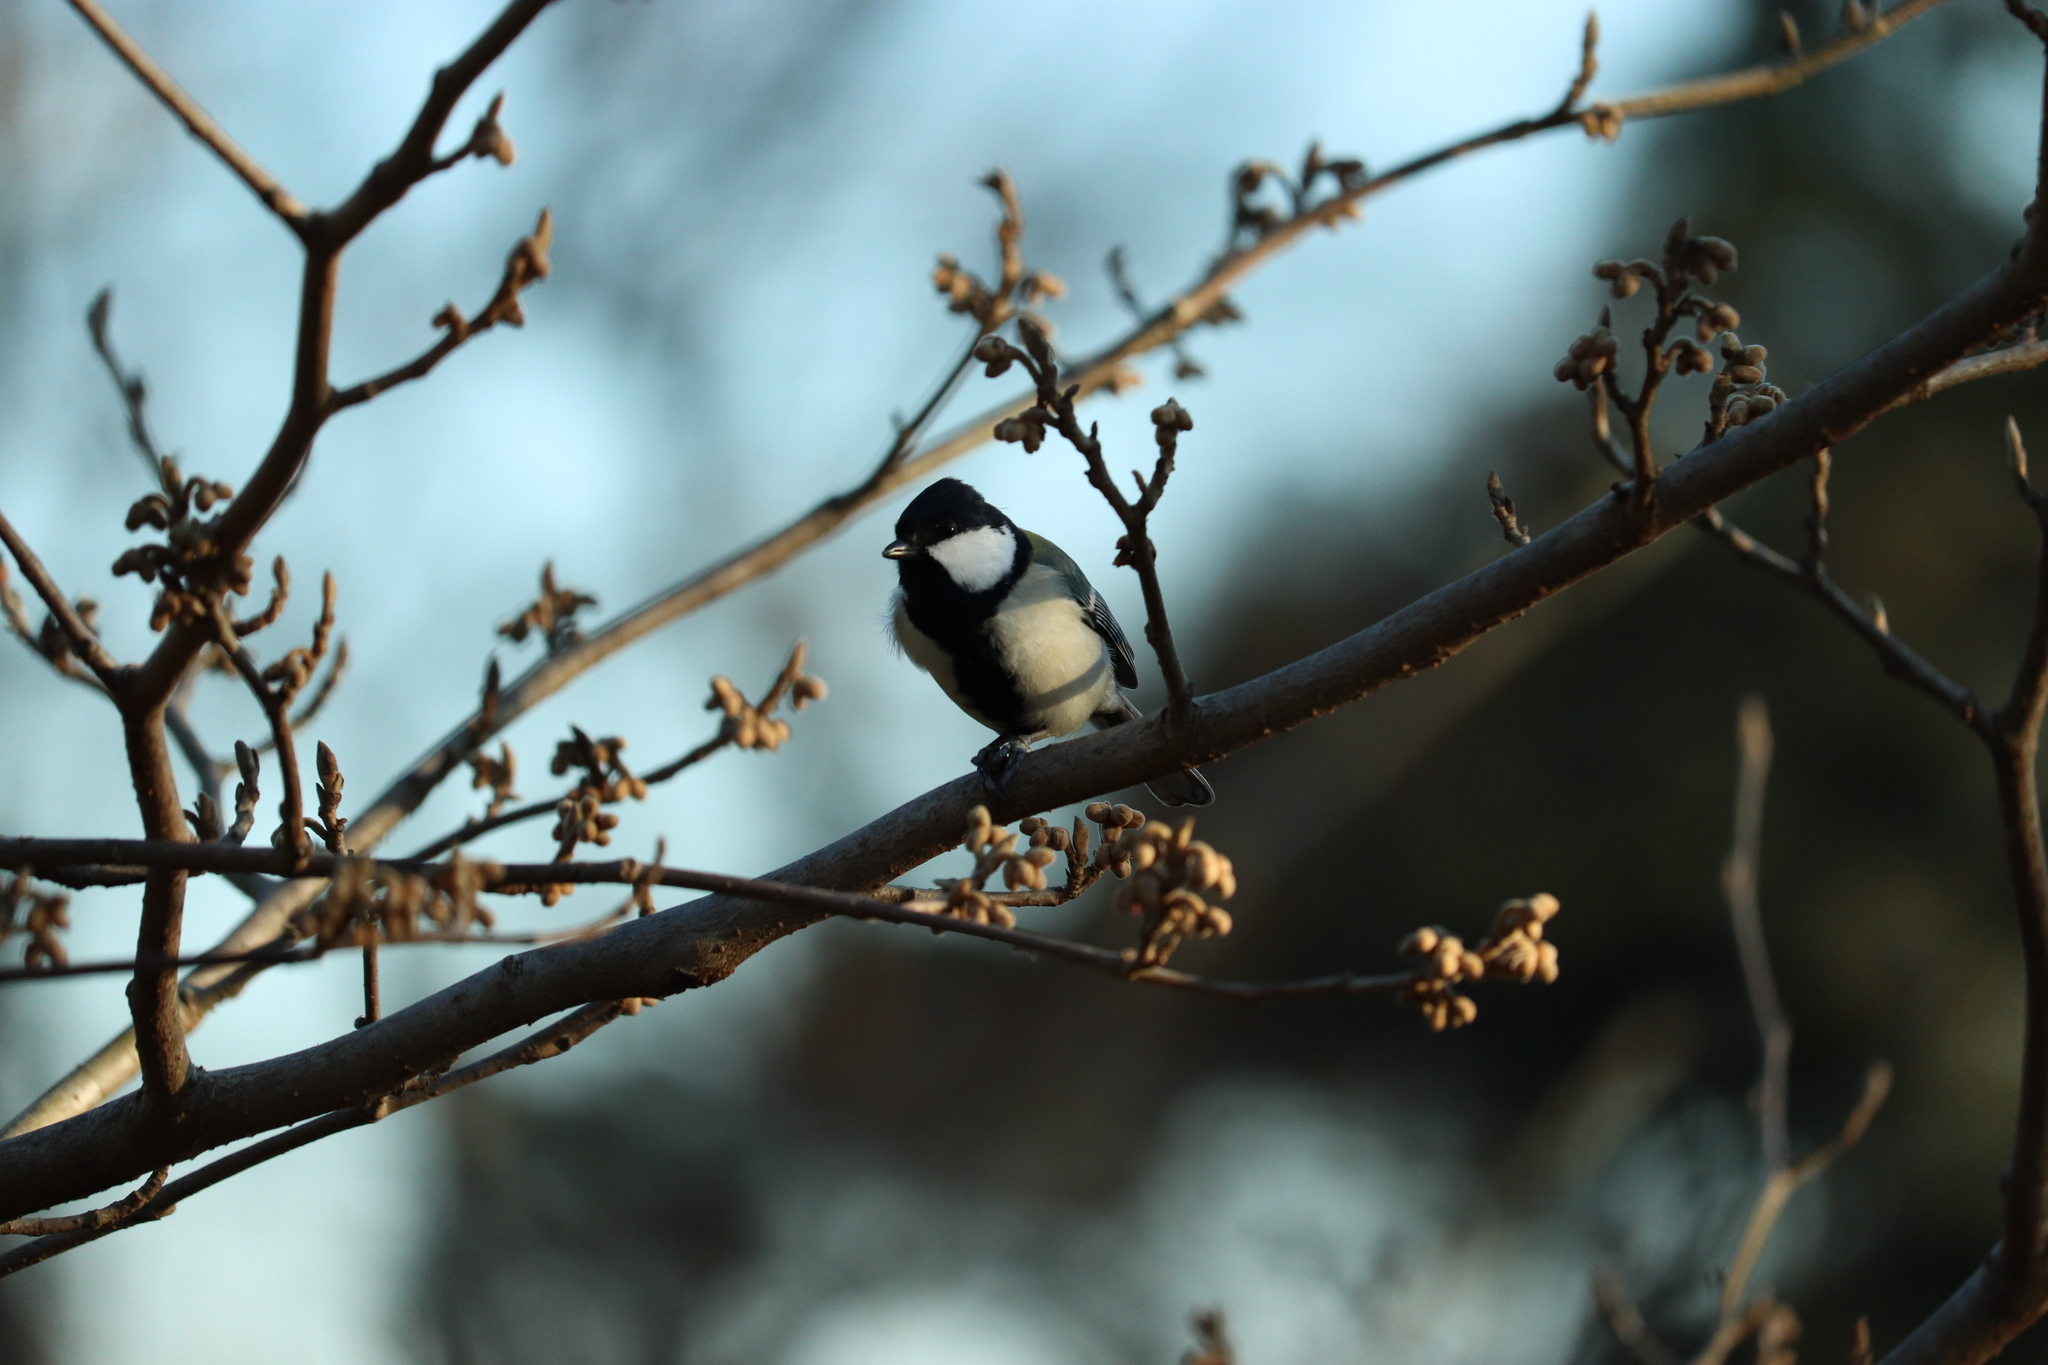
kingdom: Animalia
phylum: Chordata
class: Aves
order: Passeriformes
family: Paridae
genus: Parus
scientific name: Parus minor
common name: Japanese tit
